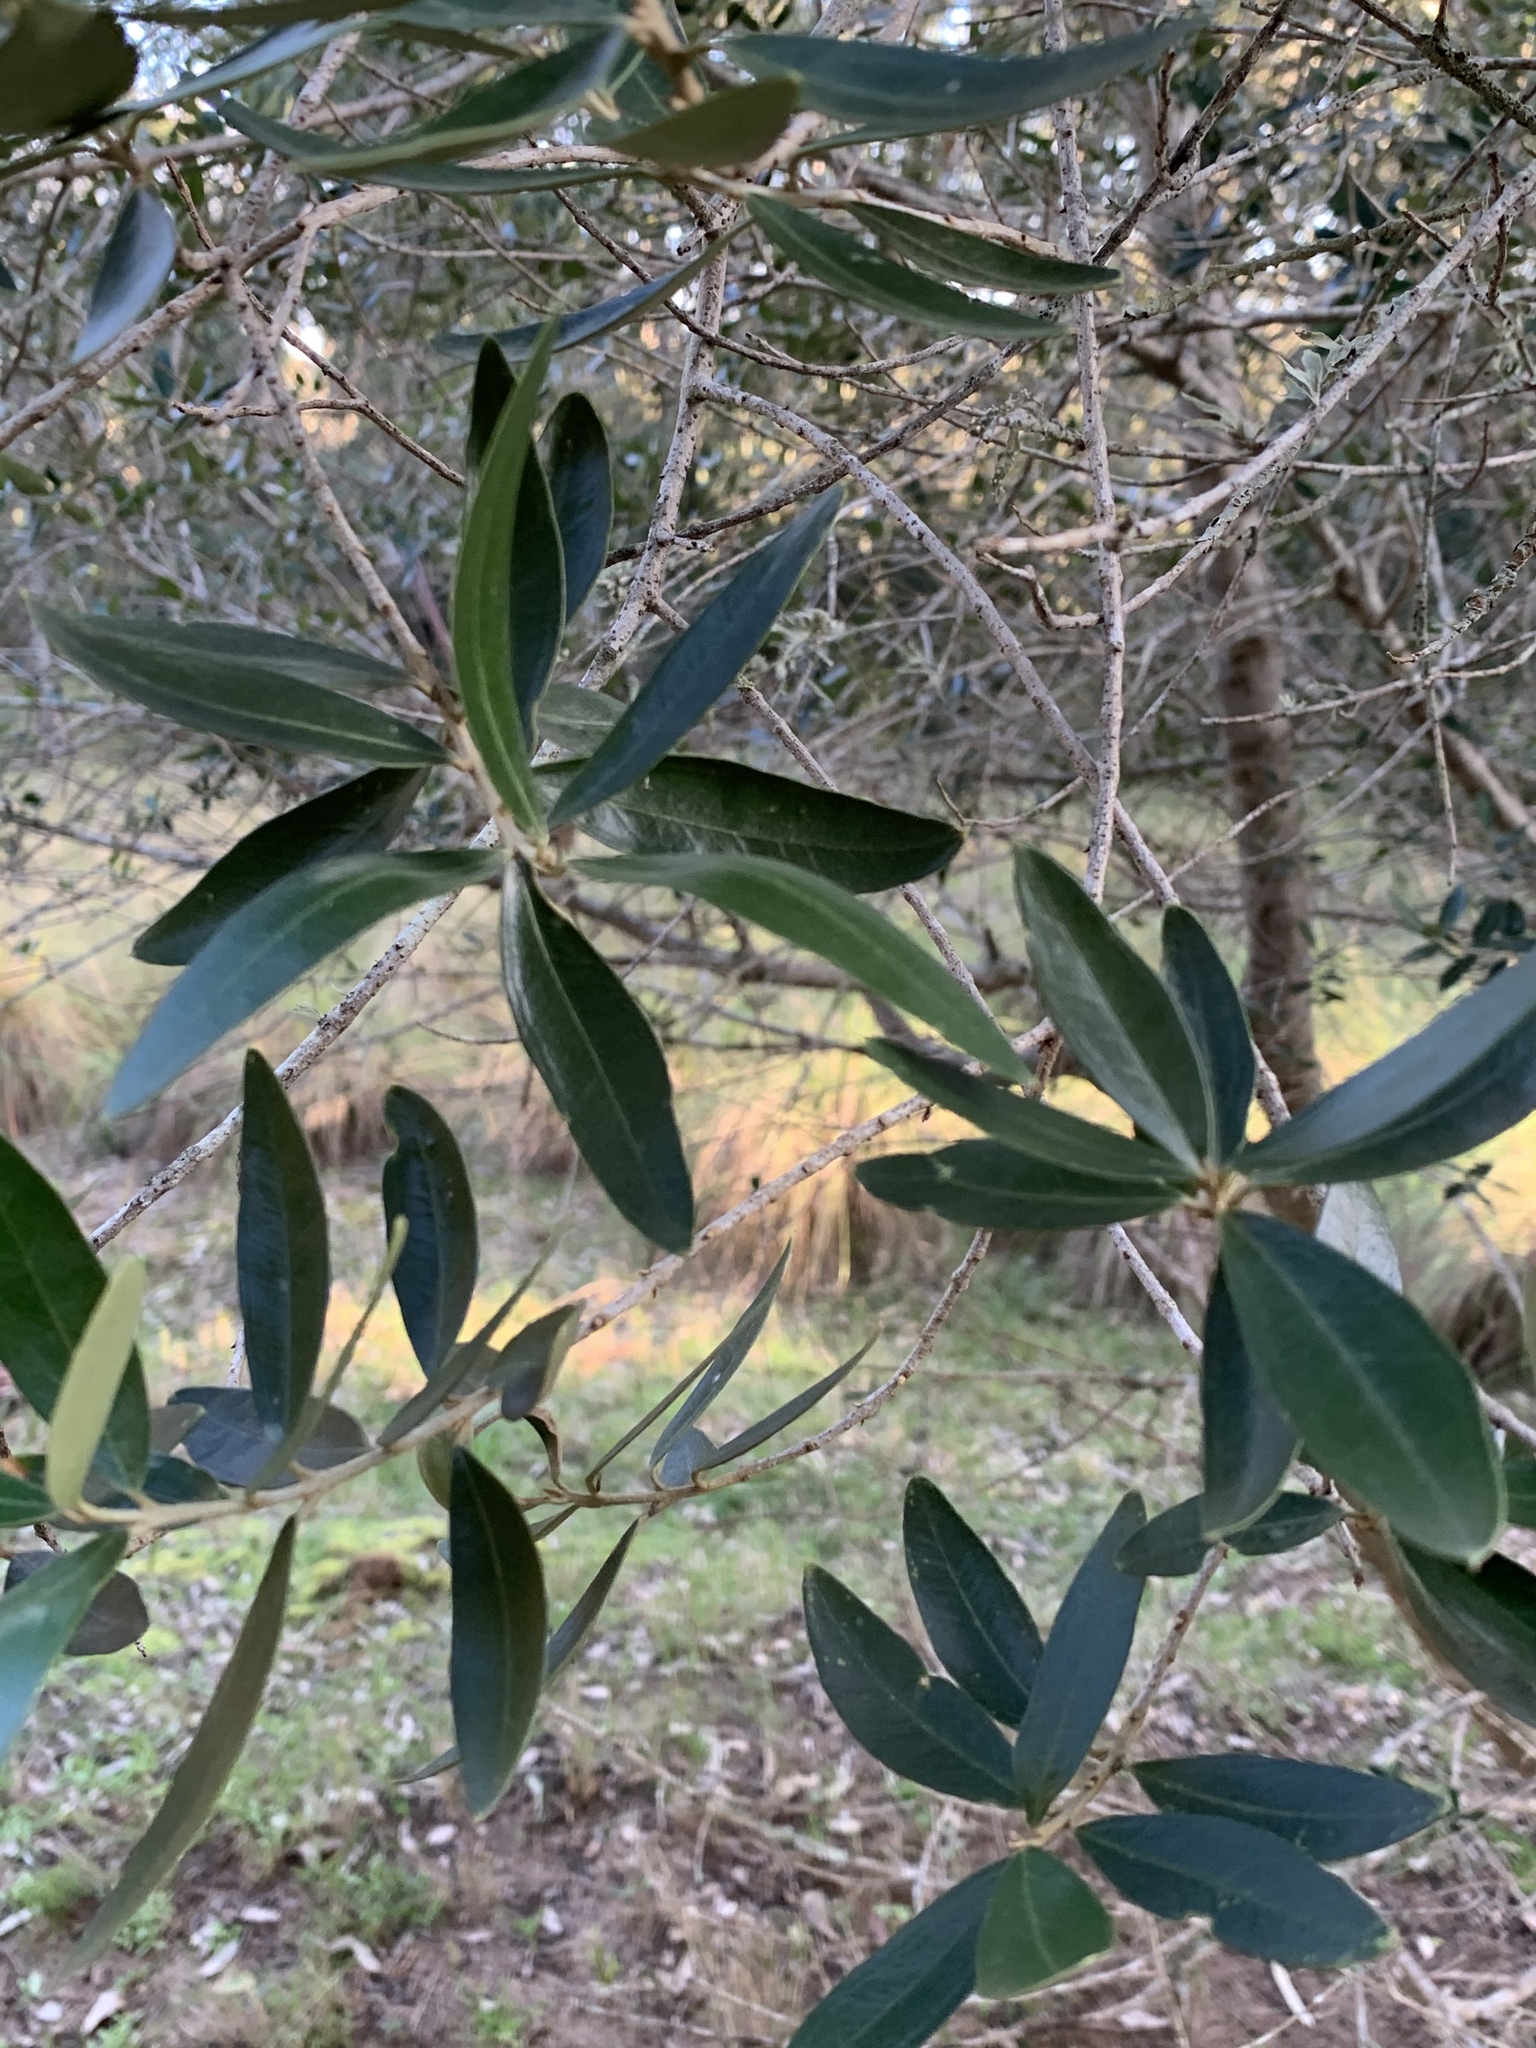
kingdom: Plantae
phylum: Tracheophyta
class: Magnoliopsida
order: Lamiales
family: Oleaceae
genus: Olea
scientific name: Olea europaea
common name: Olive
